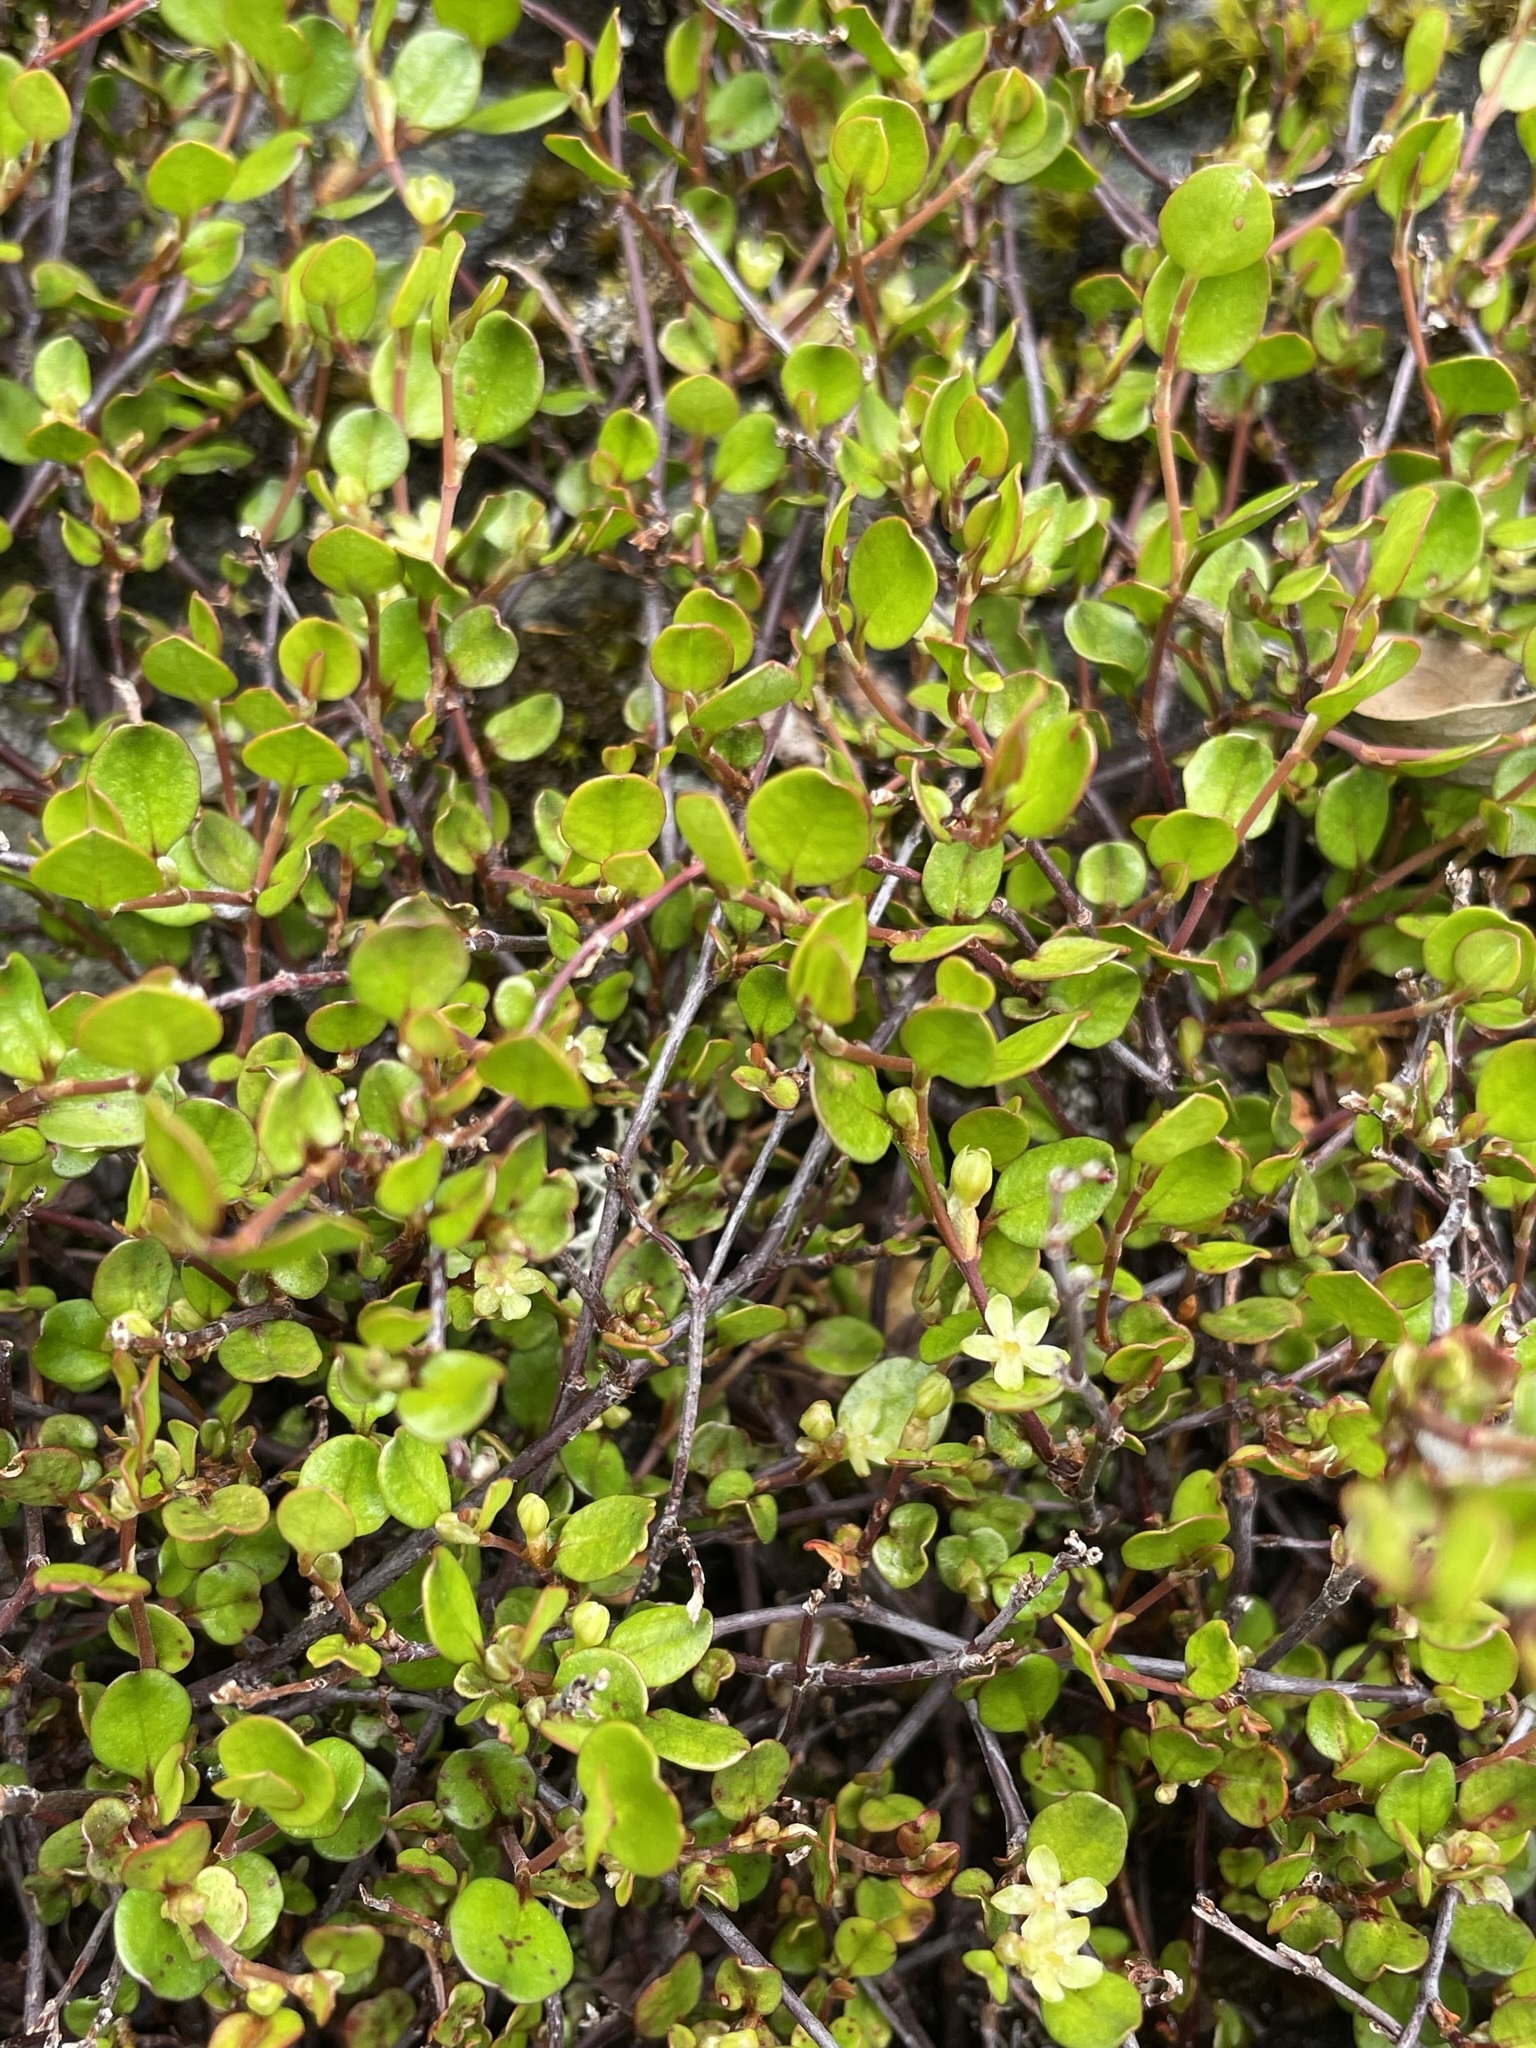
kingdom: Plantae
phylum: Tracheophyta
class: Magnoliopsida
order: Caryophyllales
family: Polygonaceae
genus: Muehlenbeckia
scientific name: Muehlenbeckia axillaris
